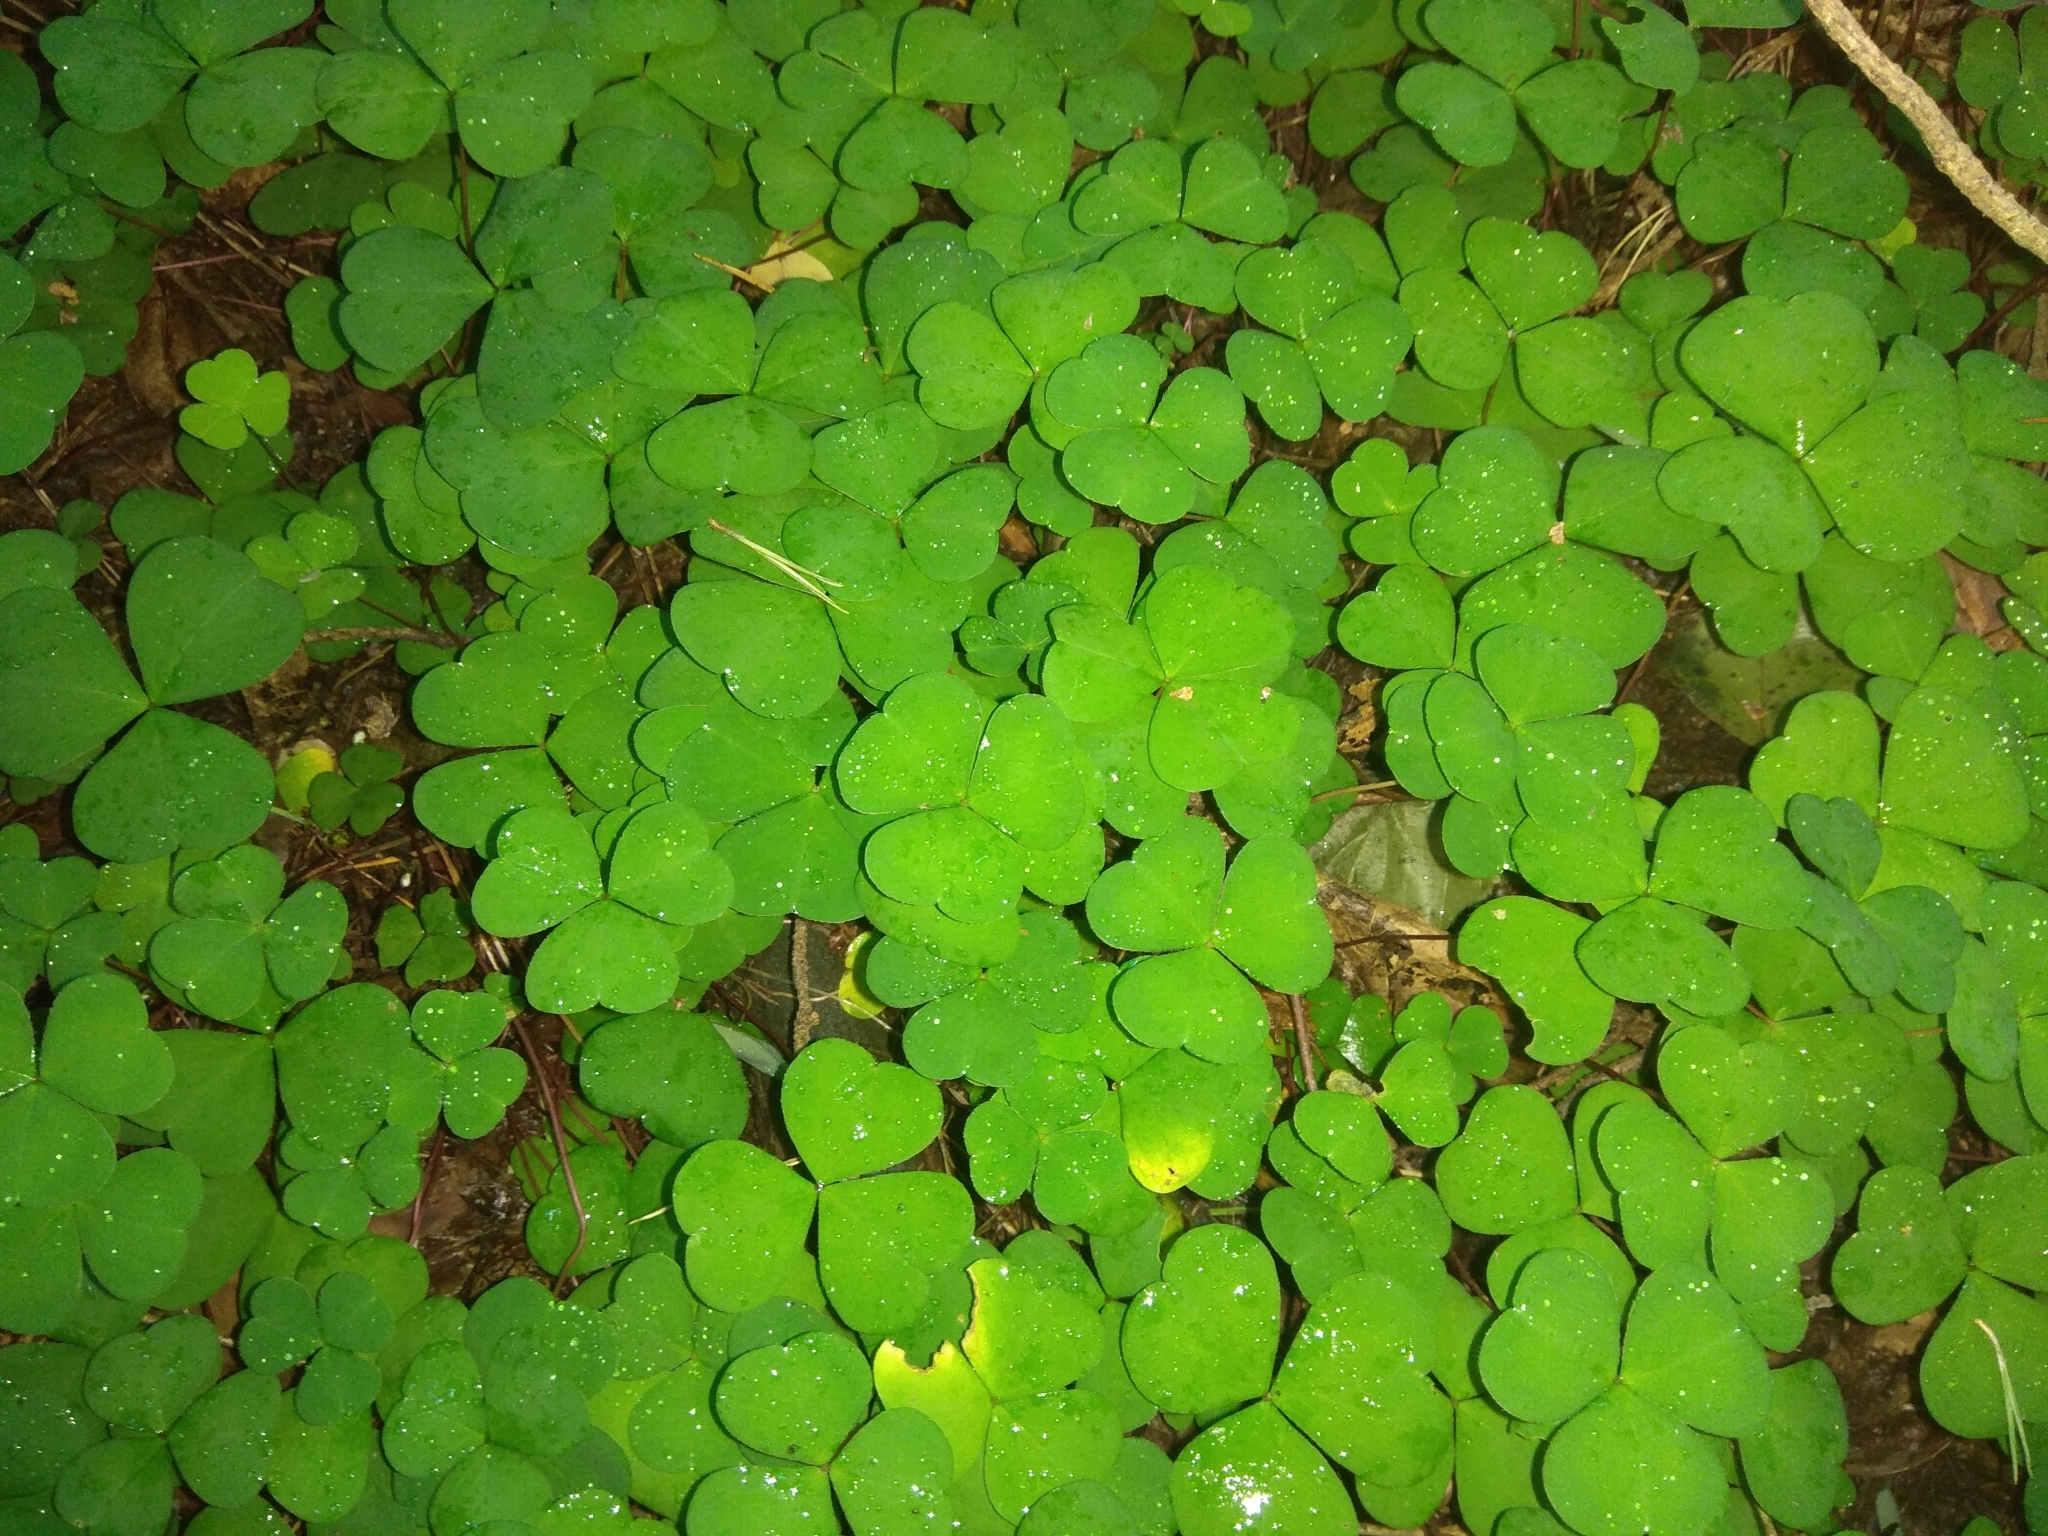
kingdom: Plantae
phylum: Tracheophyta
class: Magnoliopsida
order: Oxalidales
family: Oxalidaceae
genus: Oxalis
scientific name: Oxalis acetosella
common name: Wood-sorrel
